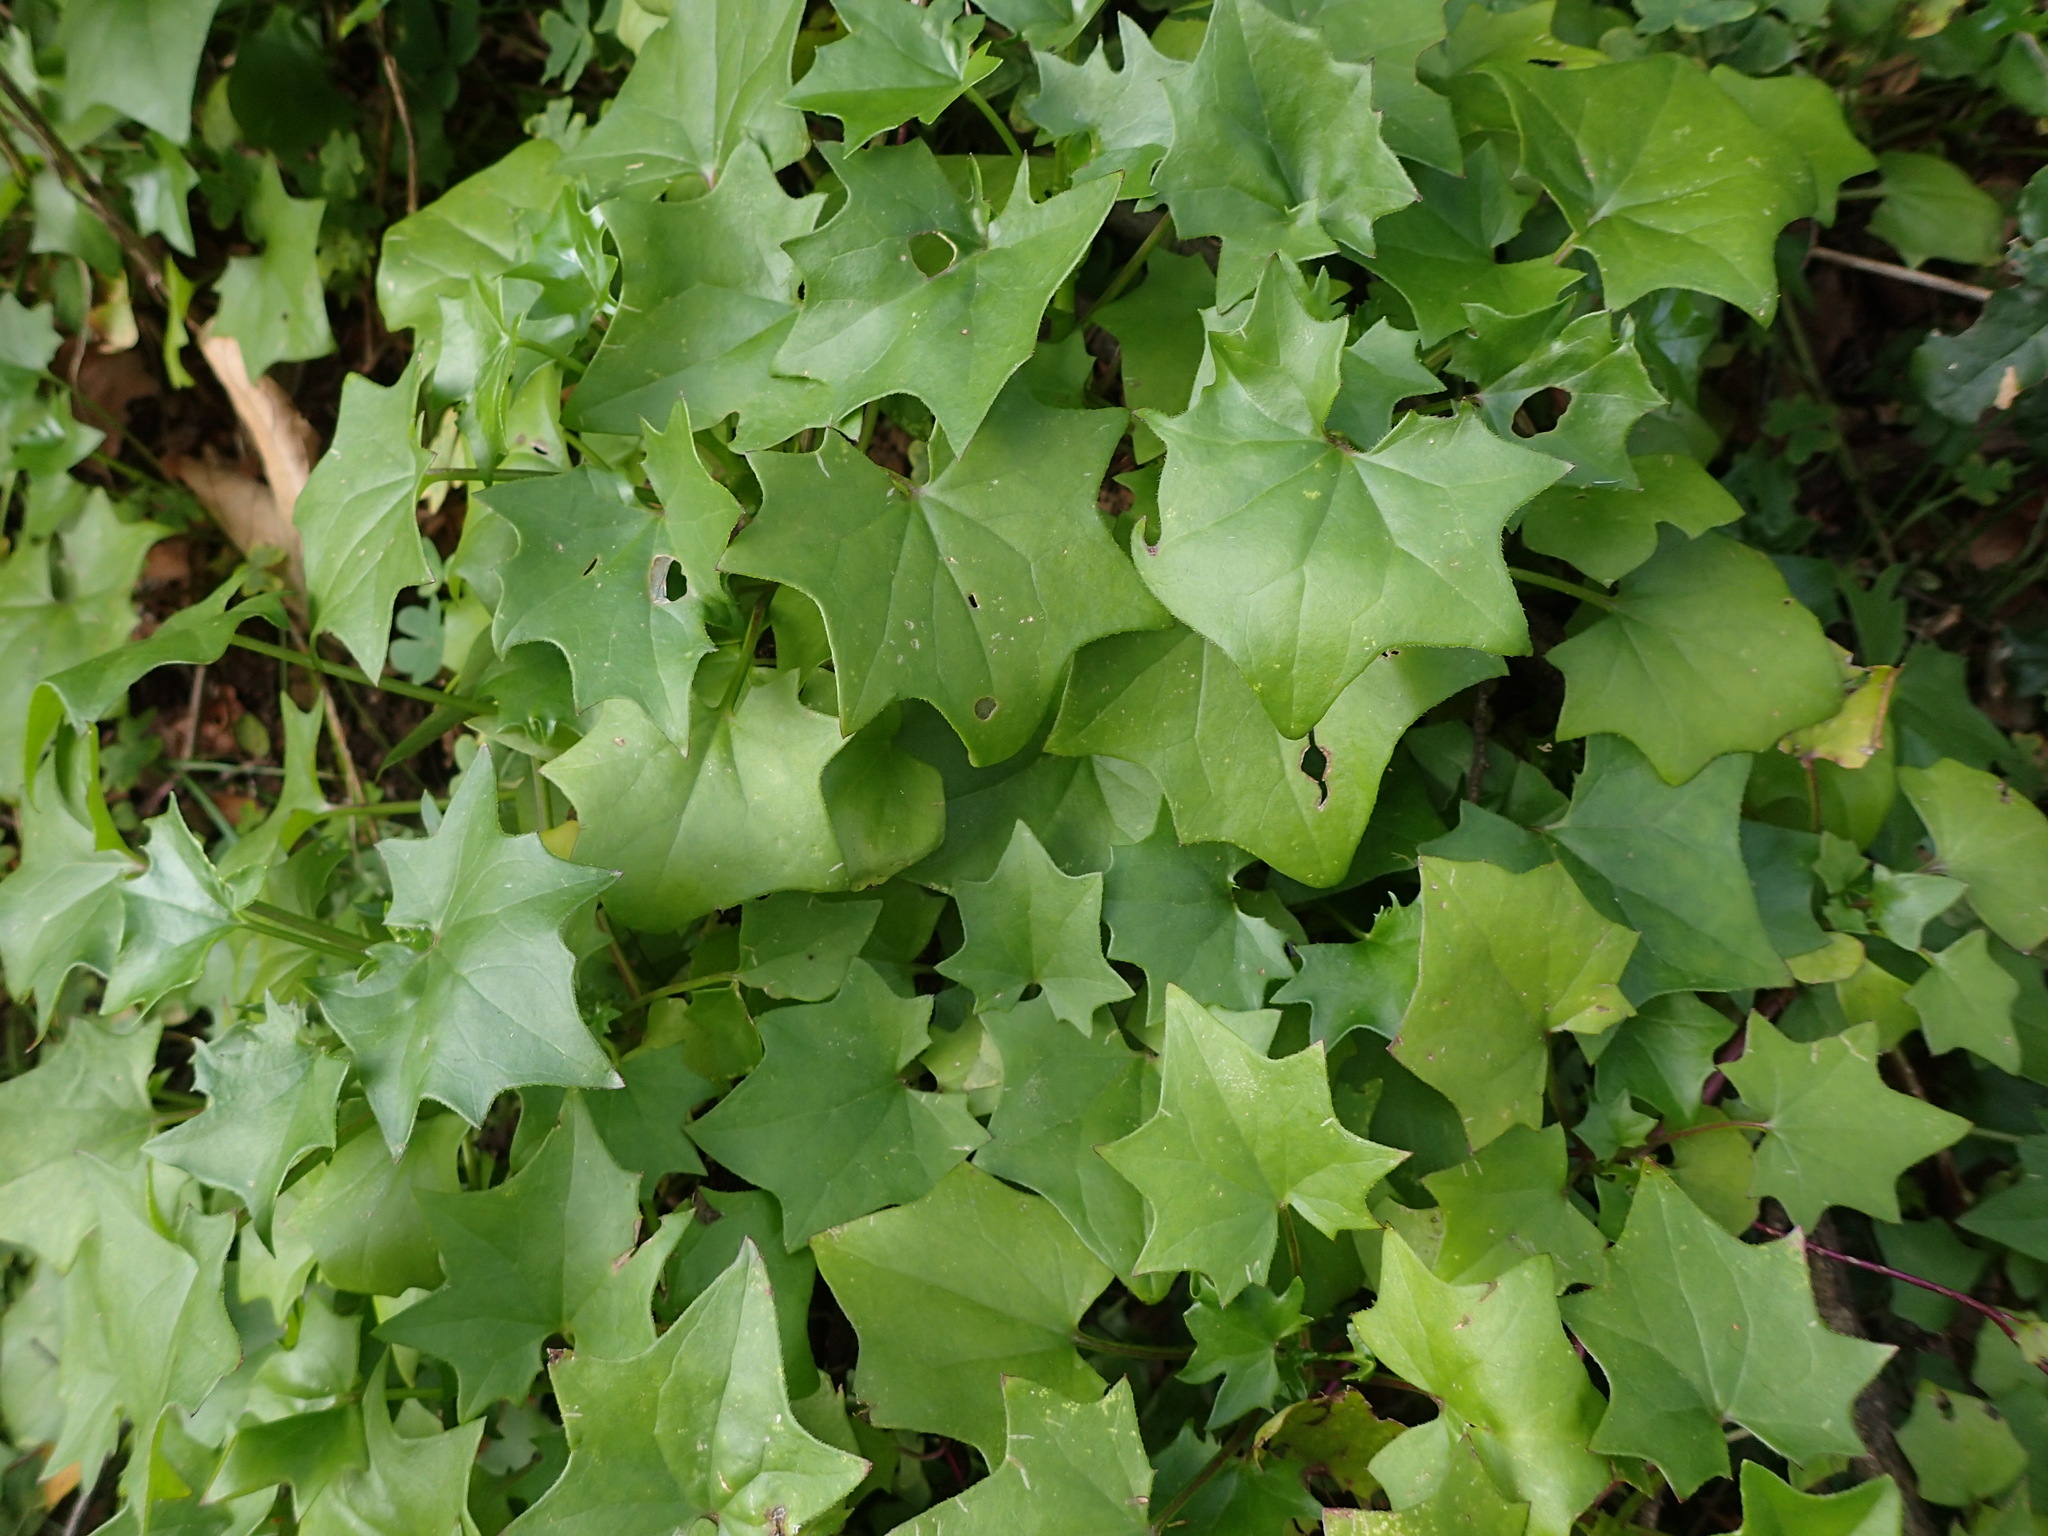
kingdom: Plantae
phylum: Tracheophyta
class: Magnoliopsida
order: Asterales
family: Asteraceae
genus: Delairea
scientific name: Delairea odorata
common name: Cape-ivy
